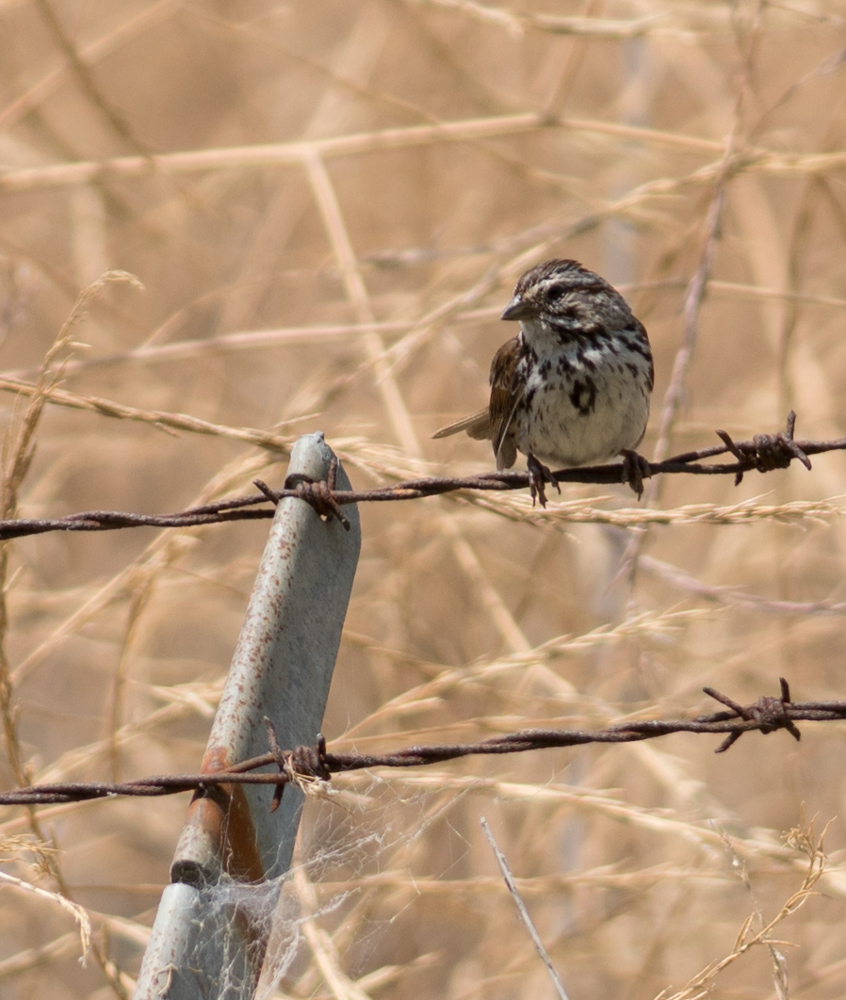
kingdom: Animalia
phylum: Chordata
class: Aves
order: Passeriformes
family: Passerellidae
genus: Melospiza
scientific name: Melospiza melodia
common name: Song sparrow
